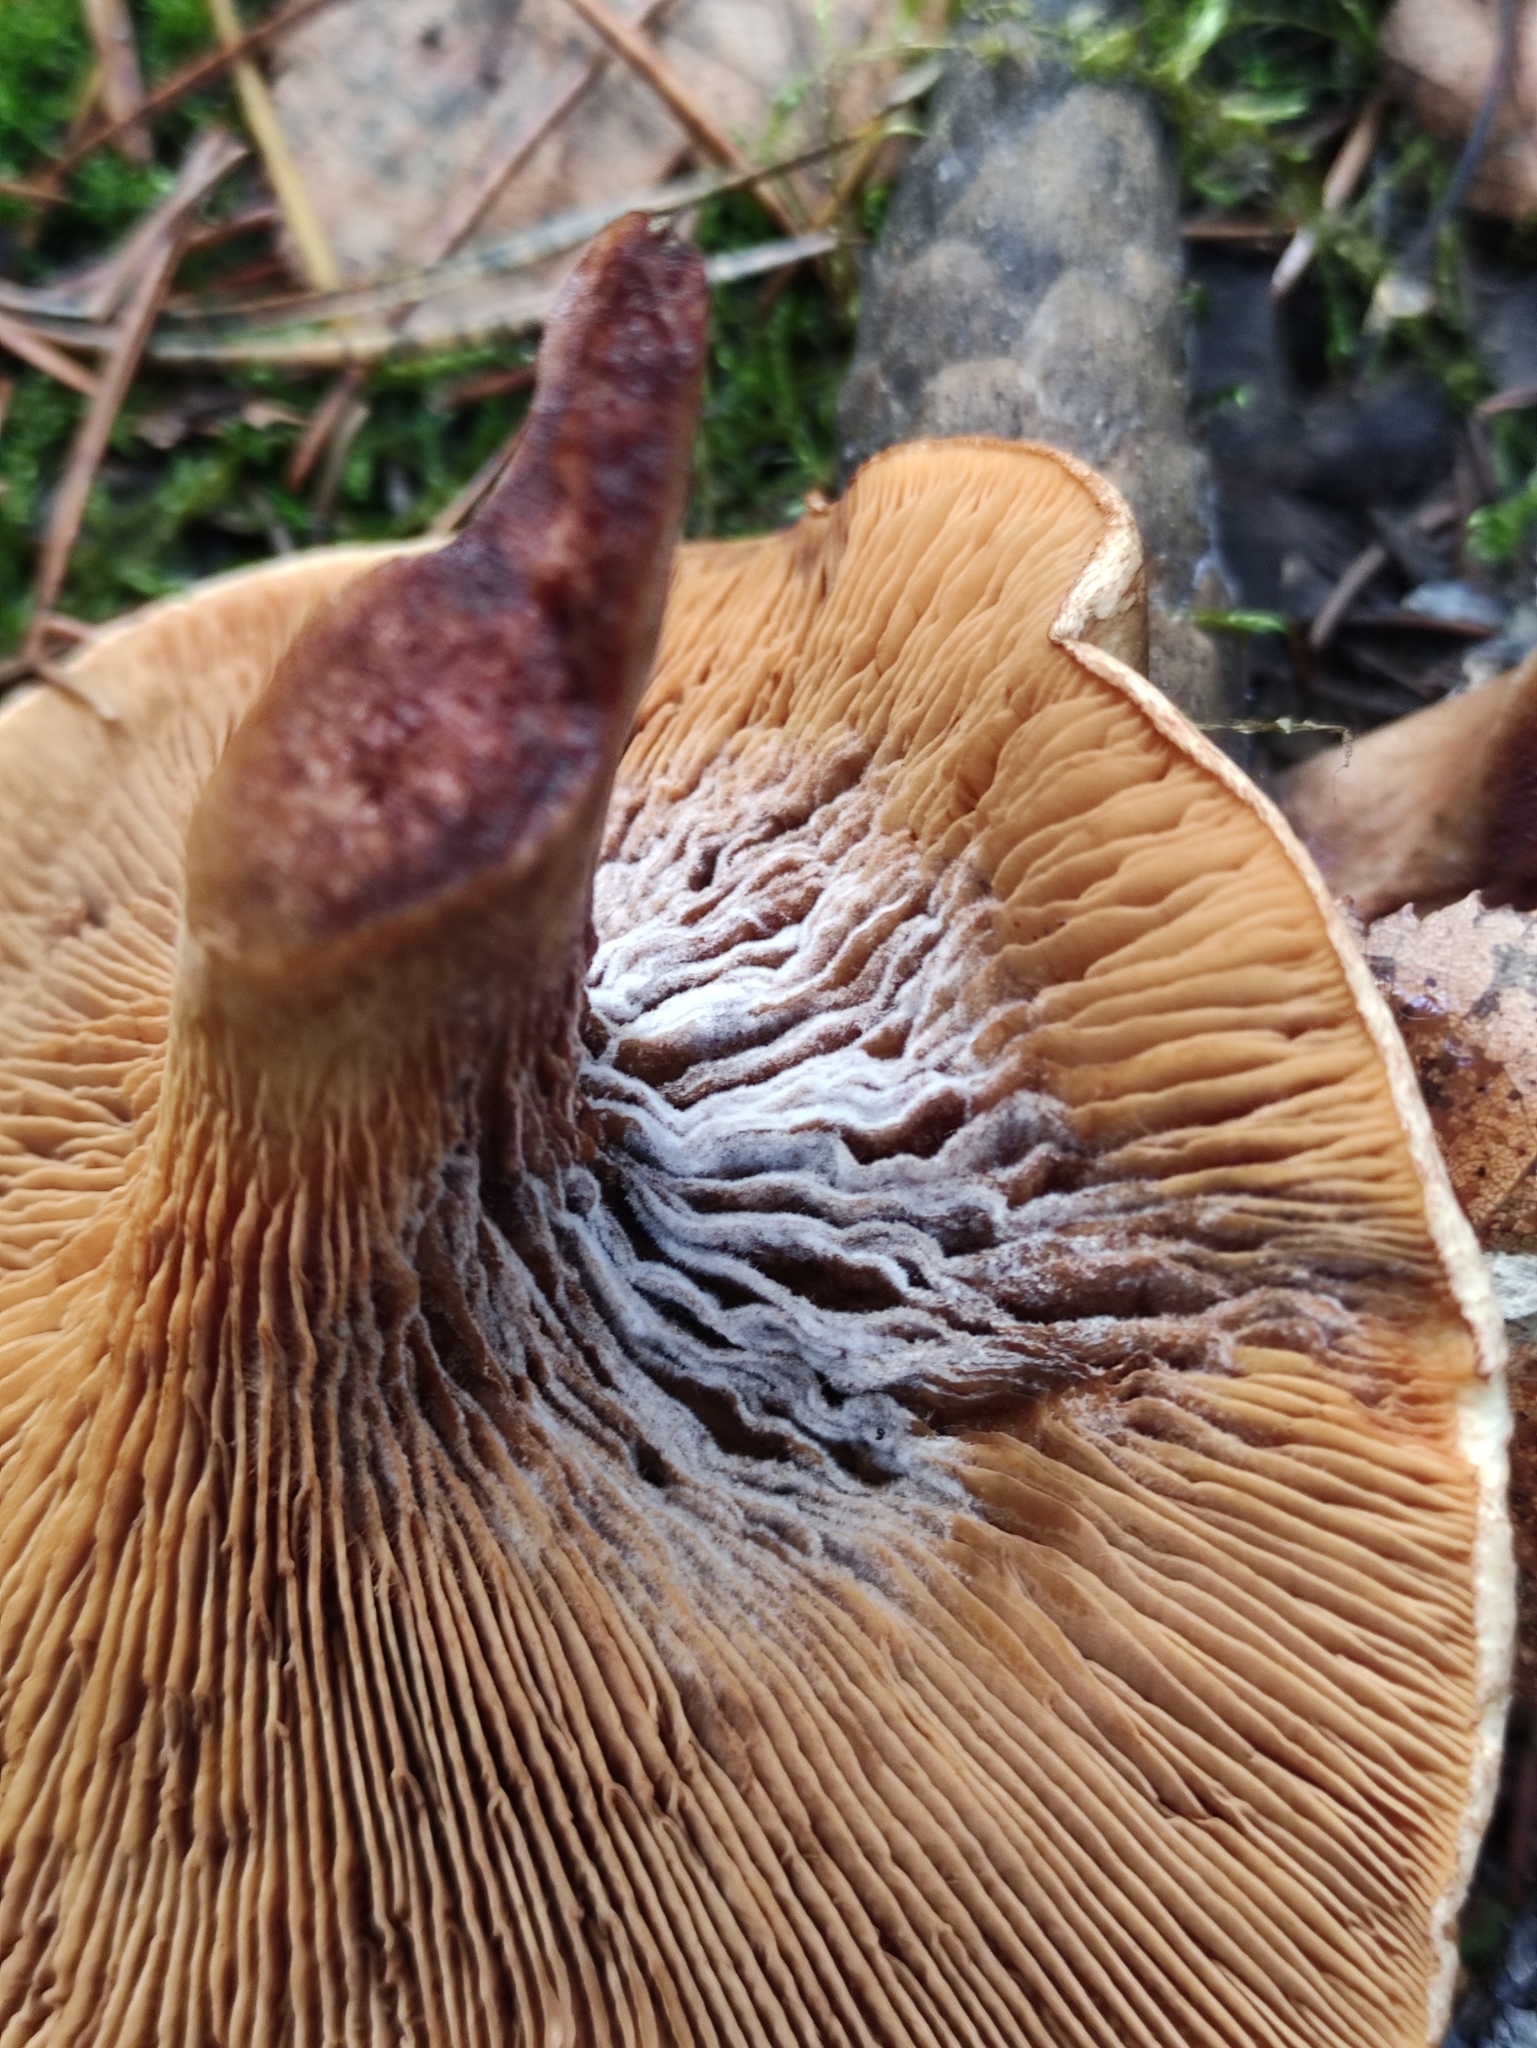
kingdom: Fungi
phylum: Basidiomycota
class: Agaricomycetes
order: Boletales
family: Paxillaceae
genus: Paxillus
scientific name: Paxillus involutus
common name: Brown roll rim
